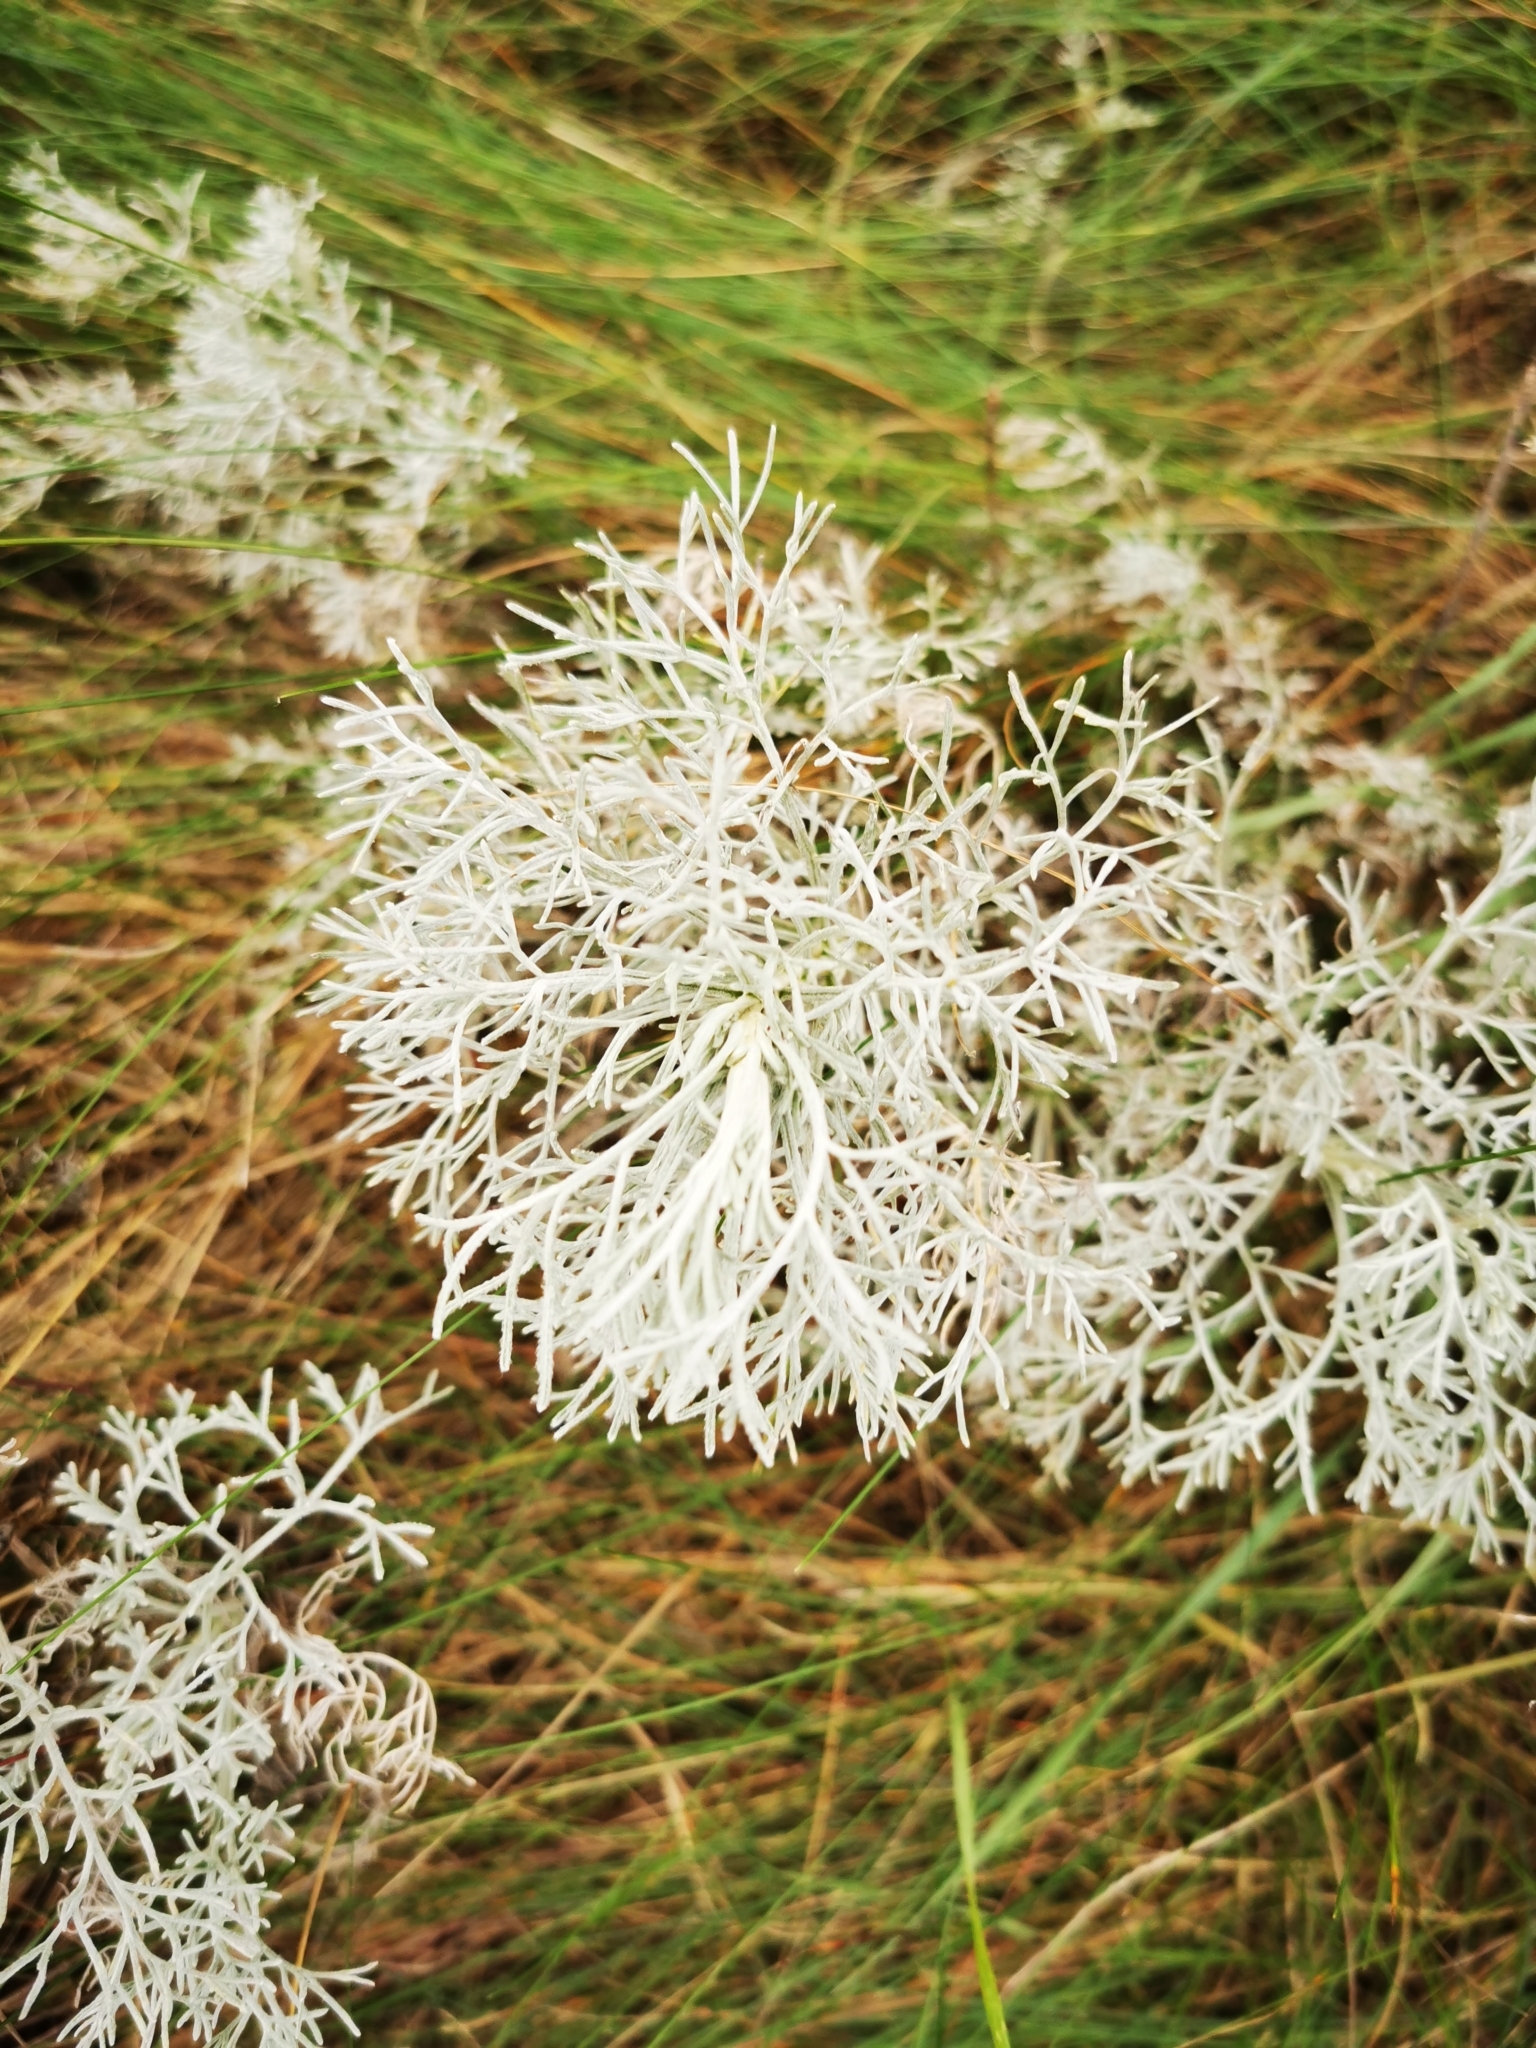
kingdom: Plantae
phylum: Tracheophyta
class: Magnoliopsida
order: Asterales
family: Asteraceae
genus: Artemisia
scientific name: Artemisia maritima
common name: Wormseed
